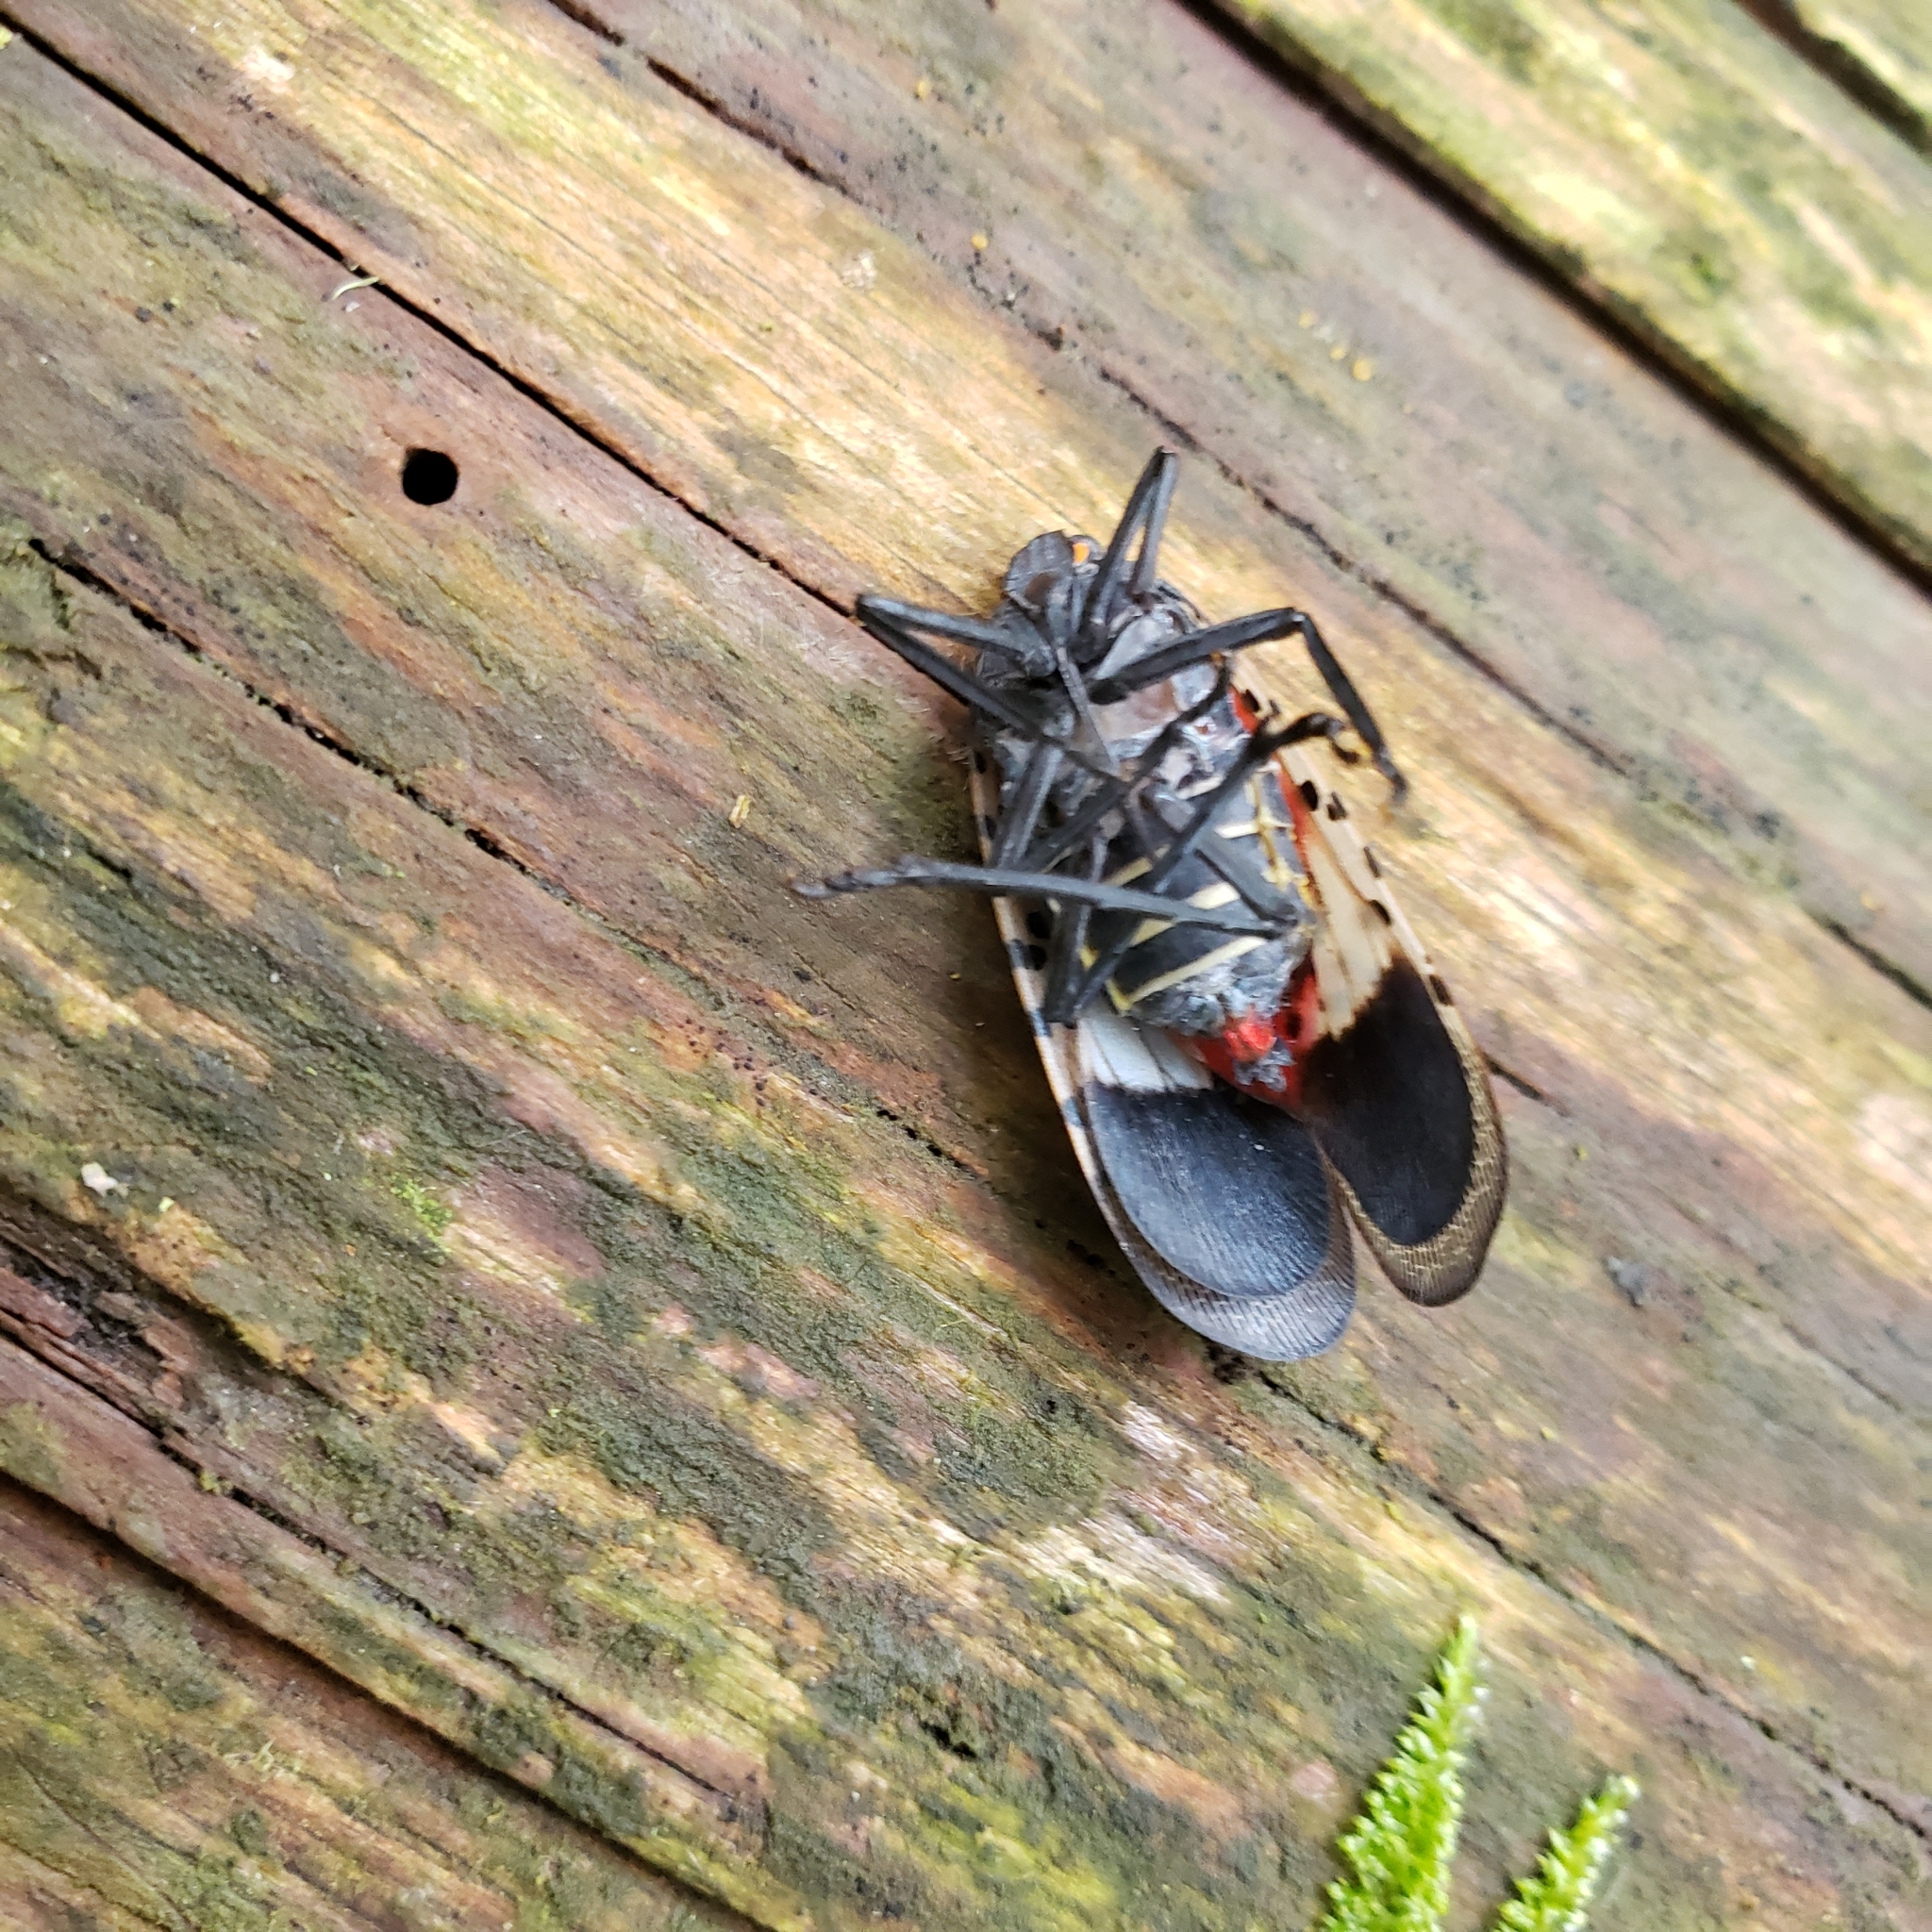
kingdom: Animalia
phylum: Arthropoda
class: Insecta
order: Hemiptera
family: Fulgoridae
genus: Lycorma
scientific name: Lycorma delicatula
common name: Spotted lanternfly
